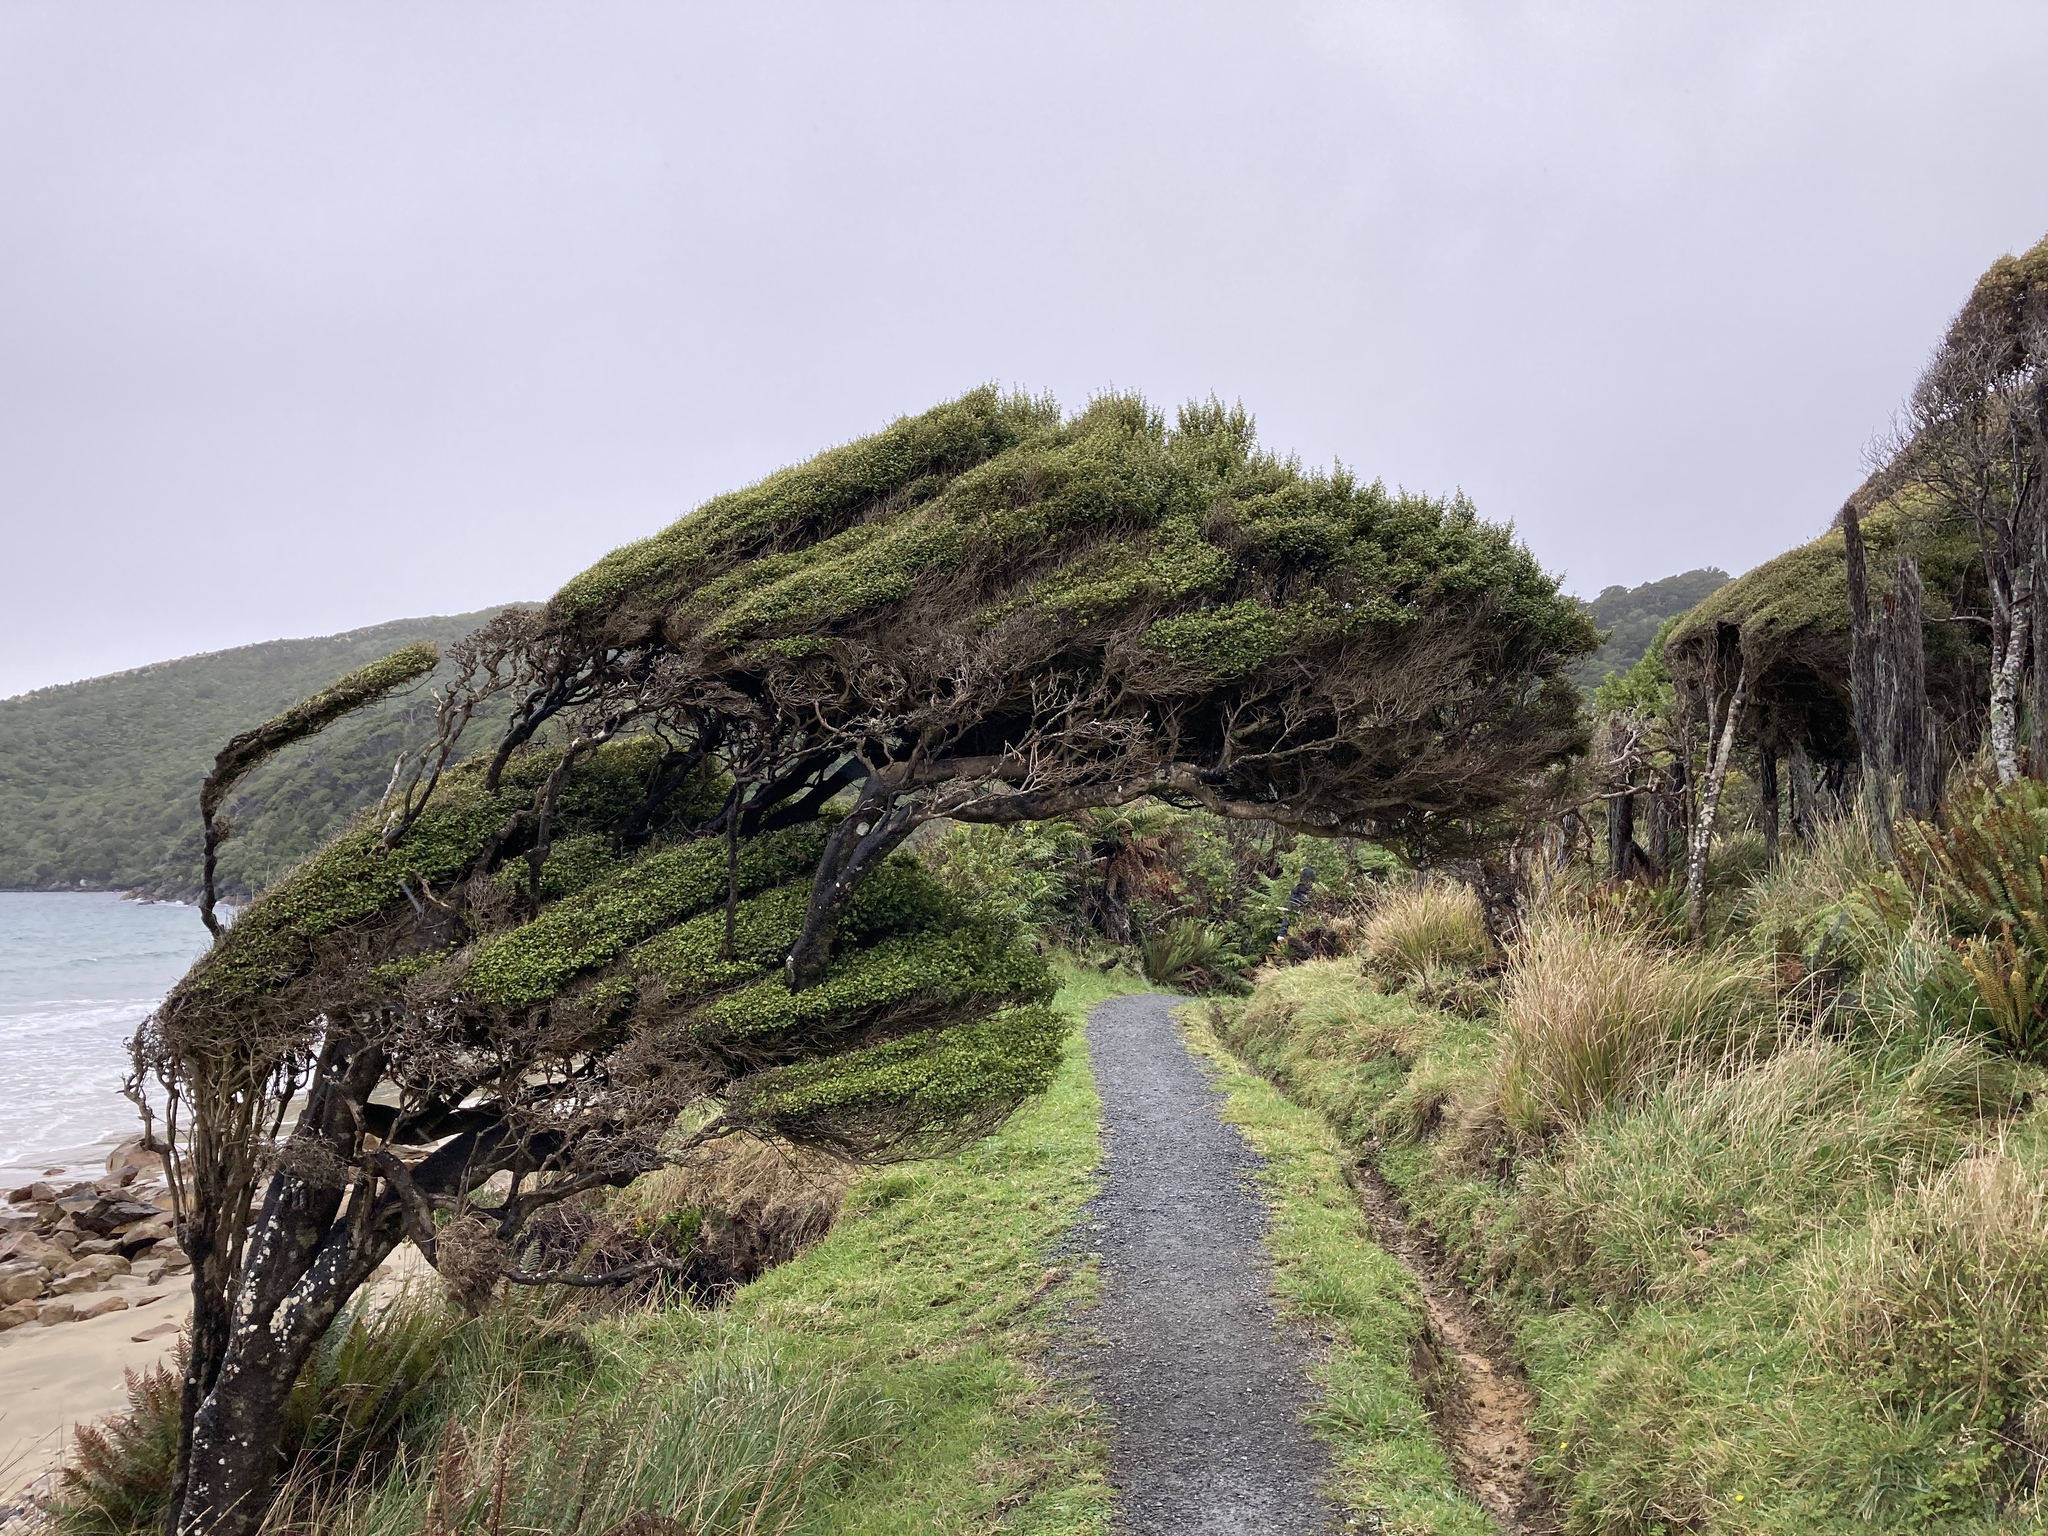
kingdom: Plantae
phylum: Tracheophyta
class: Magnoliopsida
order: Gentianales
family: Rubiaceae
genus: Coprosma
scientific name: Coprosma areolata
